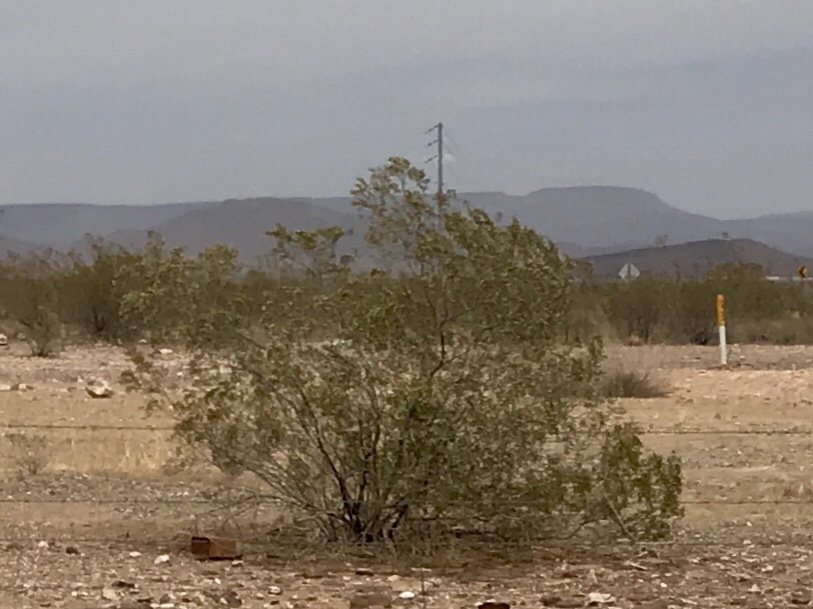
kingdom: Plantae
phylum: Tracheophyta
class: Magnoliopsida
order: Zygophyllales
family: Zygophyllaceae
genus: Larrea
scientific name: Larrea tridentata
